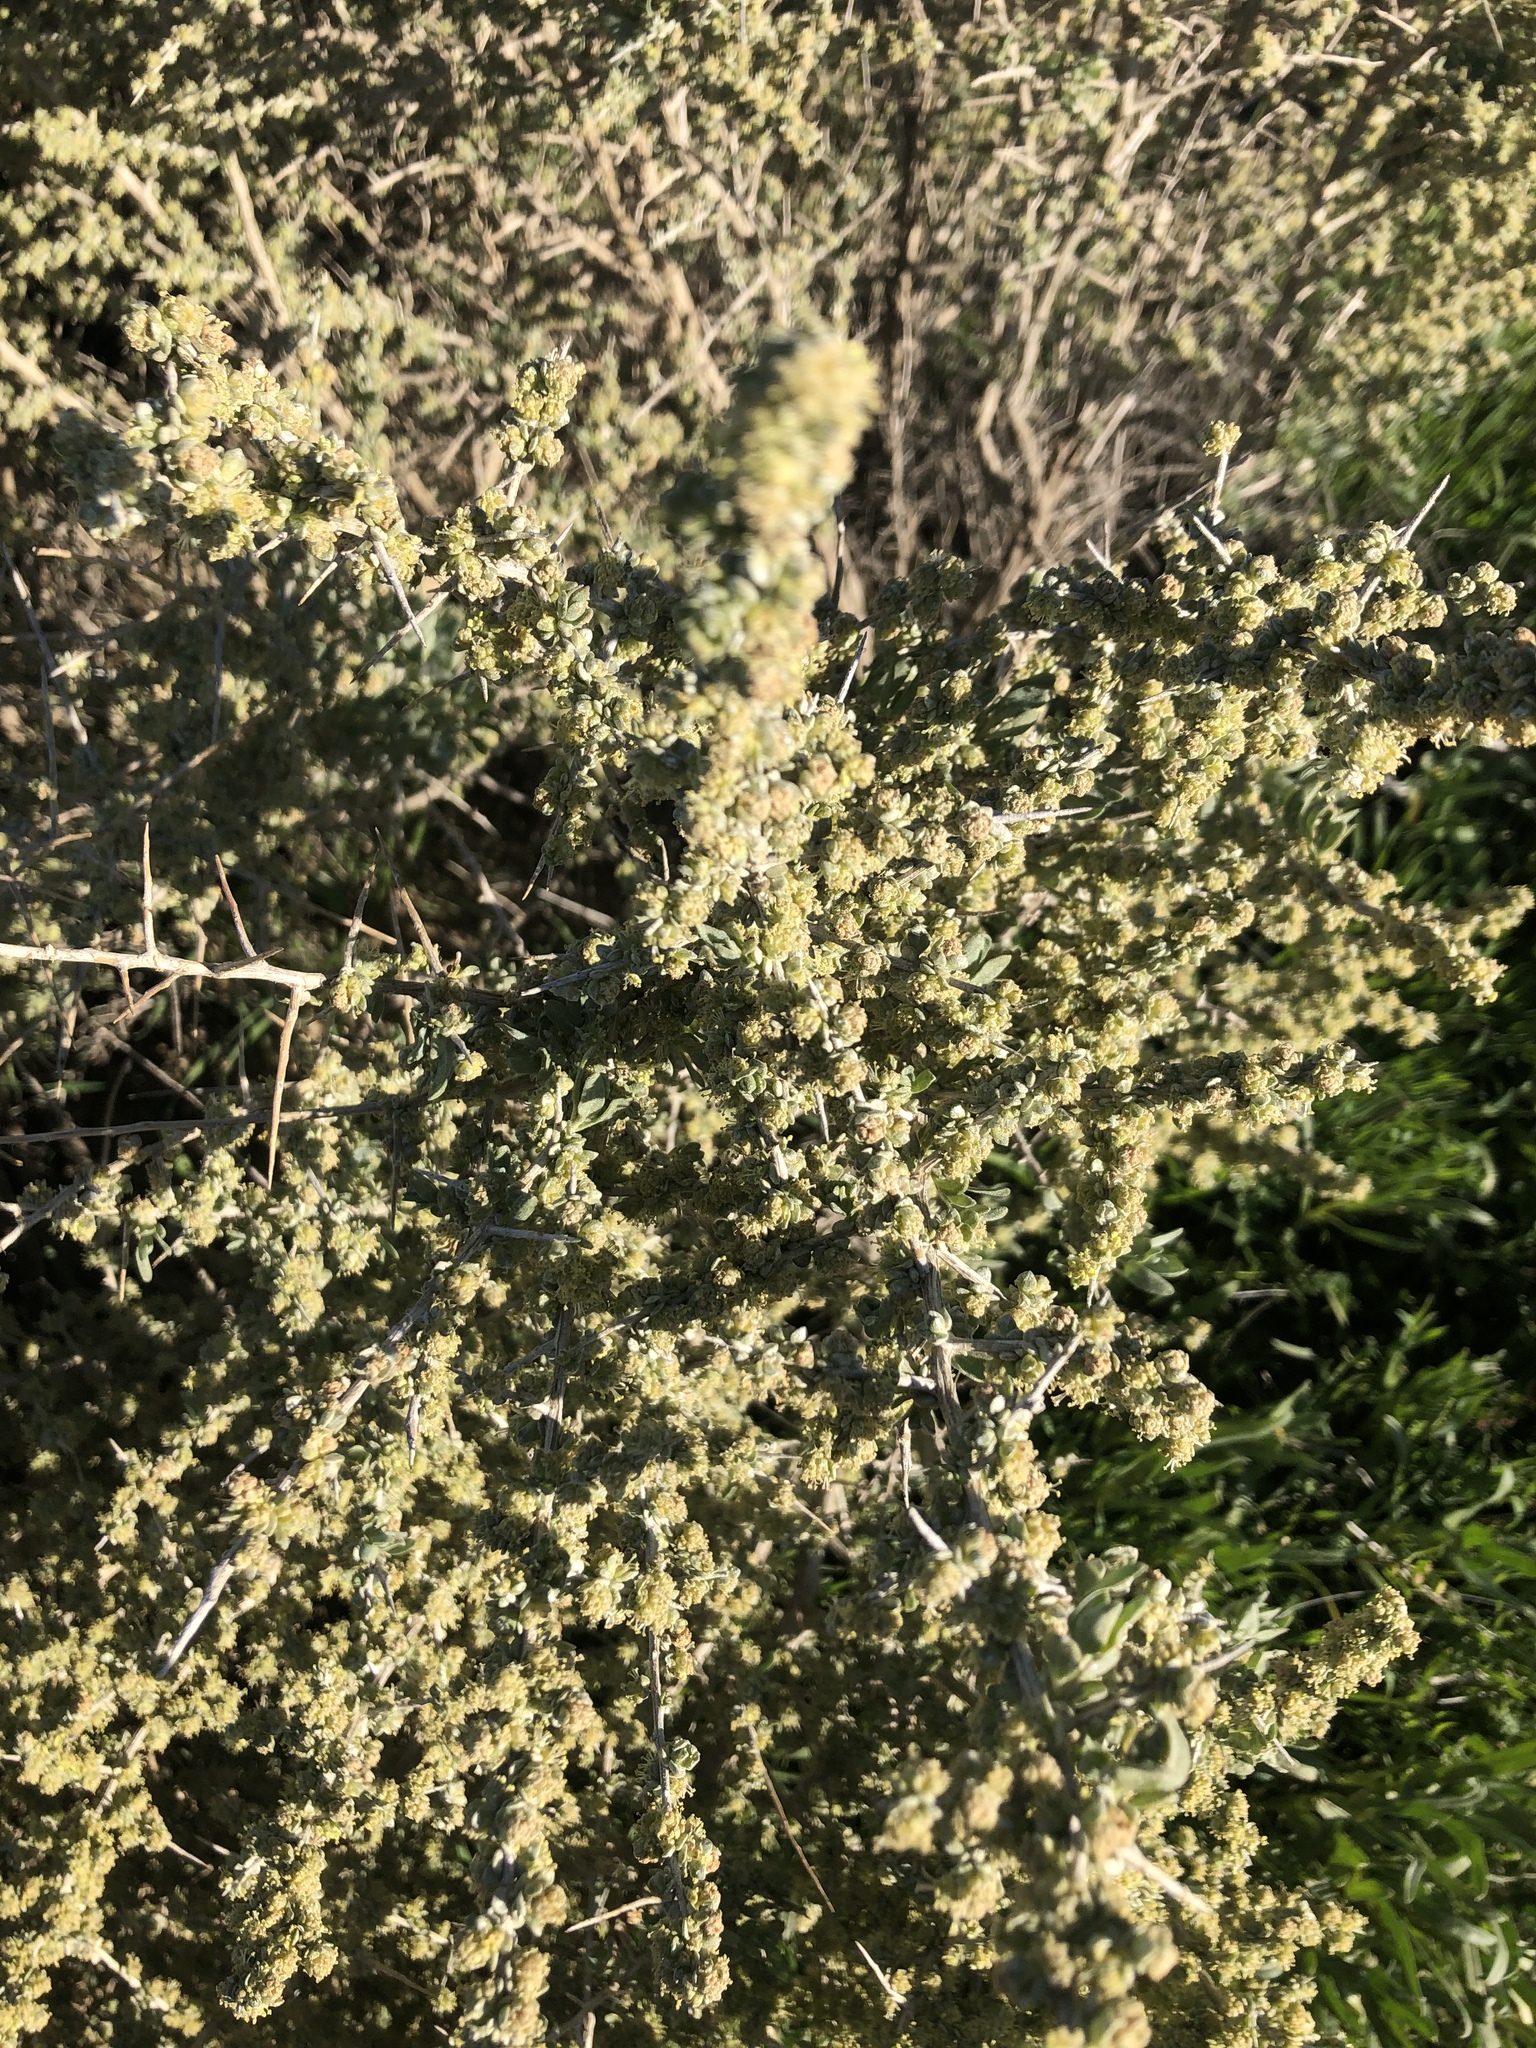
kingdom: Plantae
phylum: Tracheophyta
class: Magnoliopsida
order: Caryophyllales
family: Amaranthaceae
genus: Atriplex
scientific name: Atriplex spinifera
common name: Spiny saltbush
